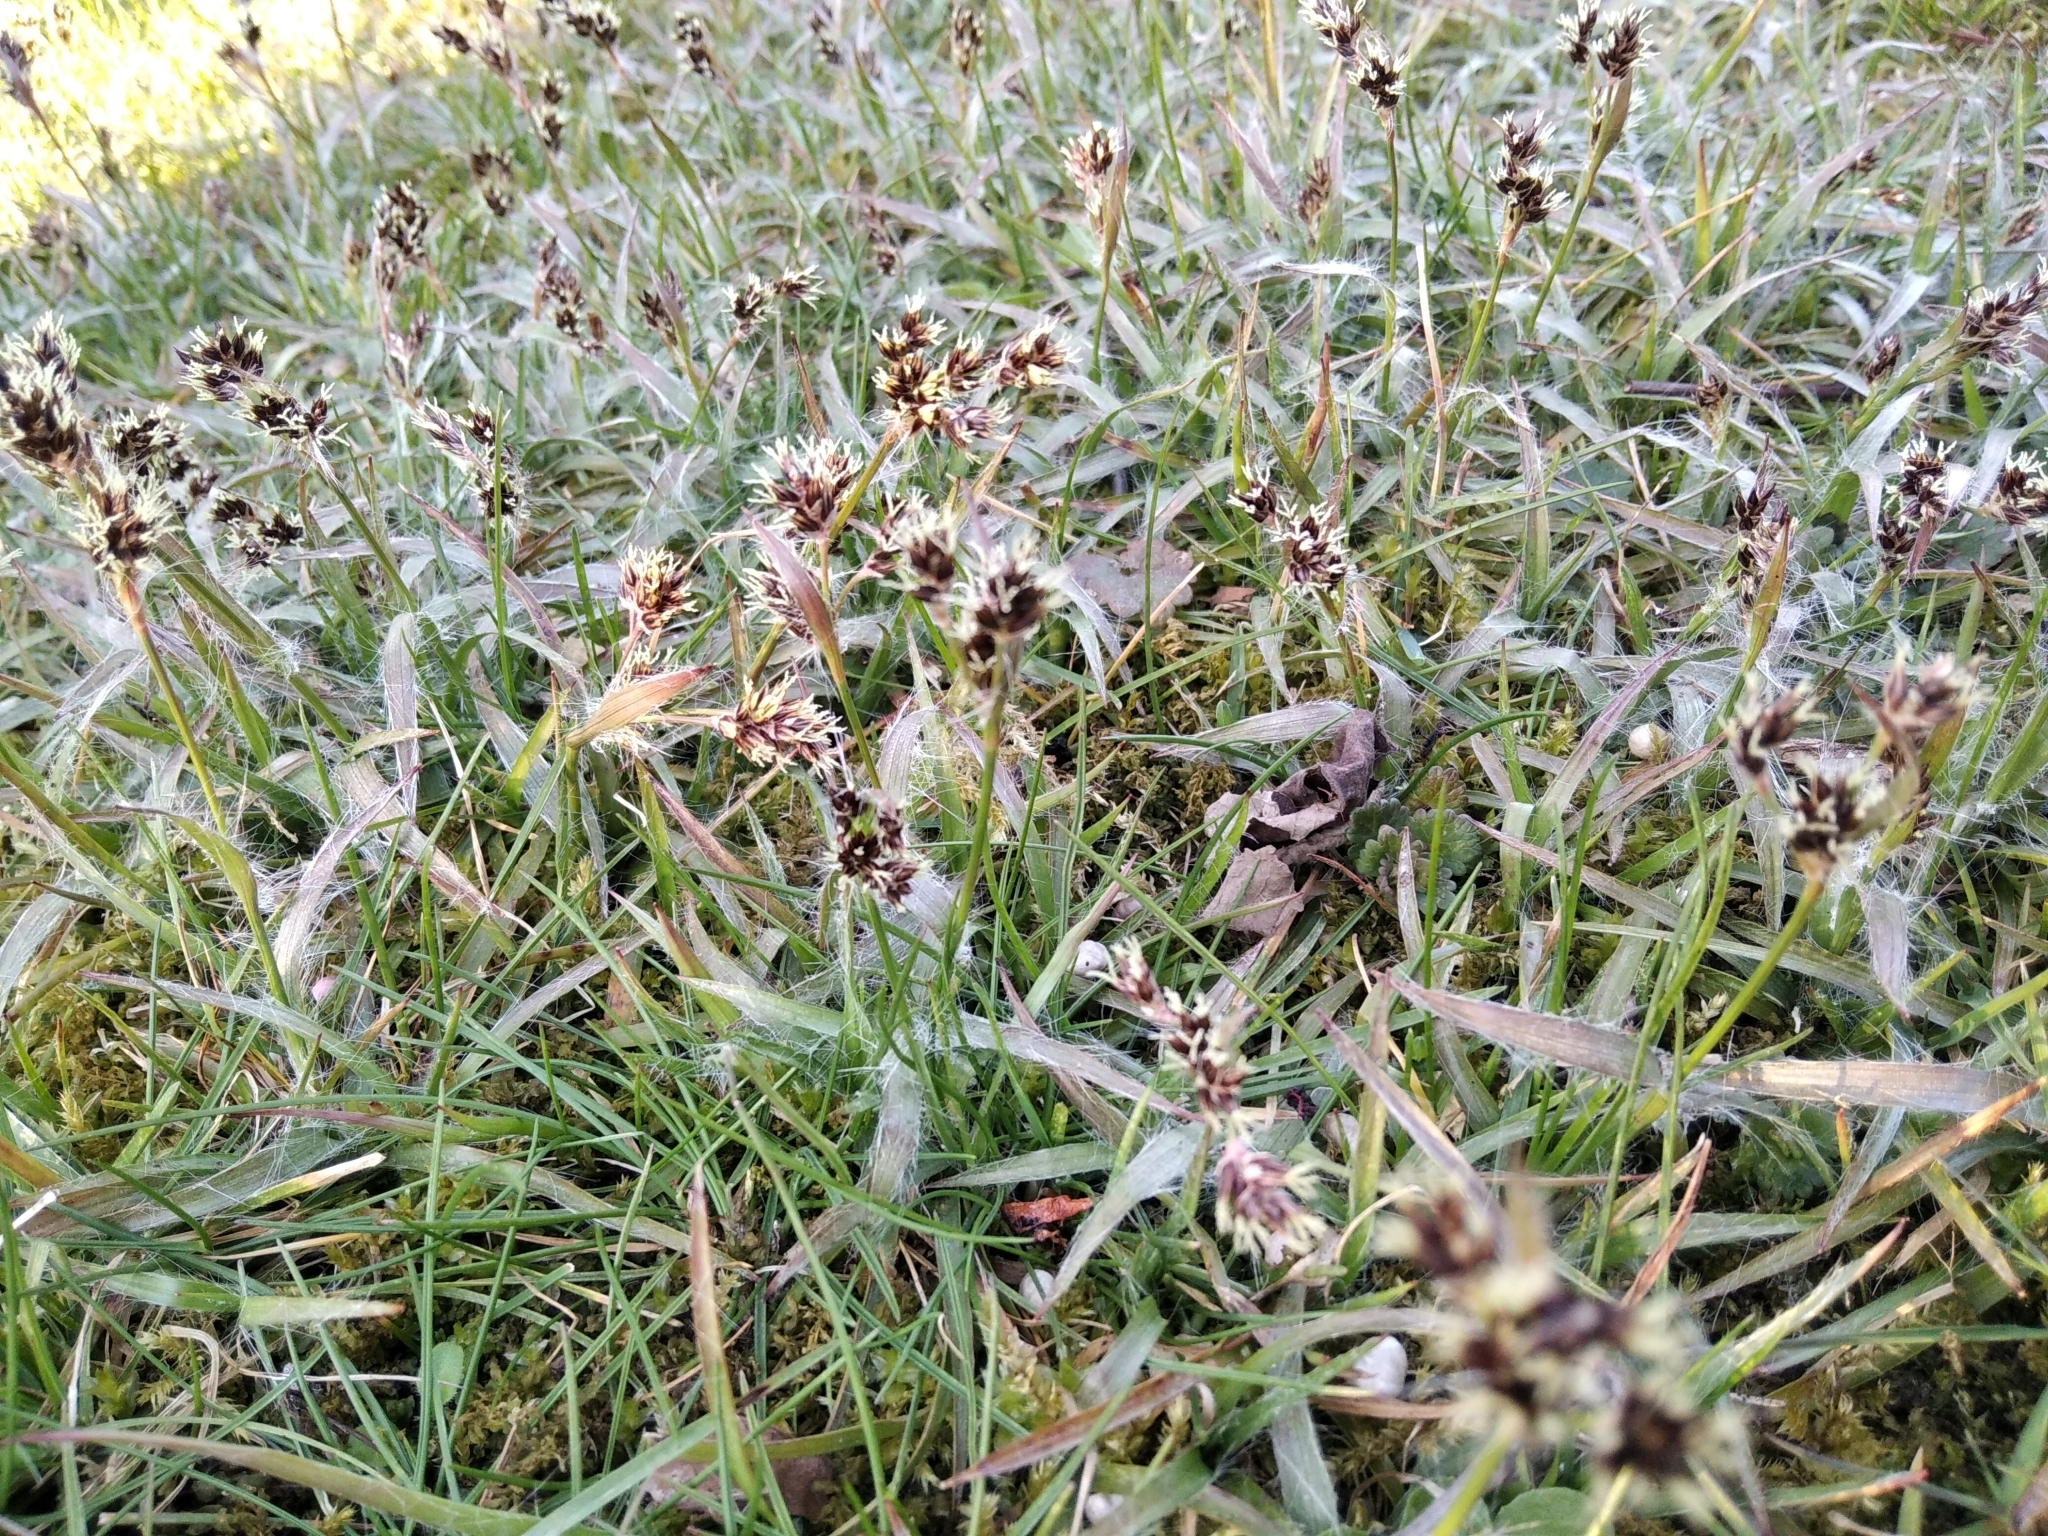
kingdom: Plantae
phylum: Tracheophyta
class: Liliopsida
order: Poales
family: Juncaceae
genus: Luzula
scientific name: Luzula campestris
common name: Field wood-rush
